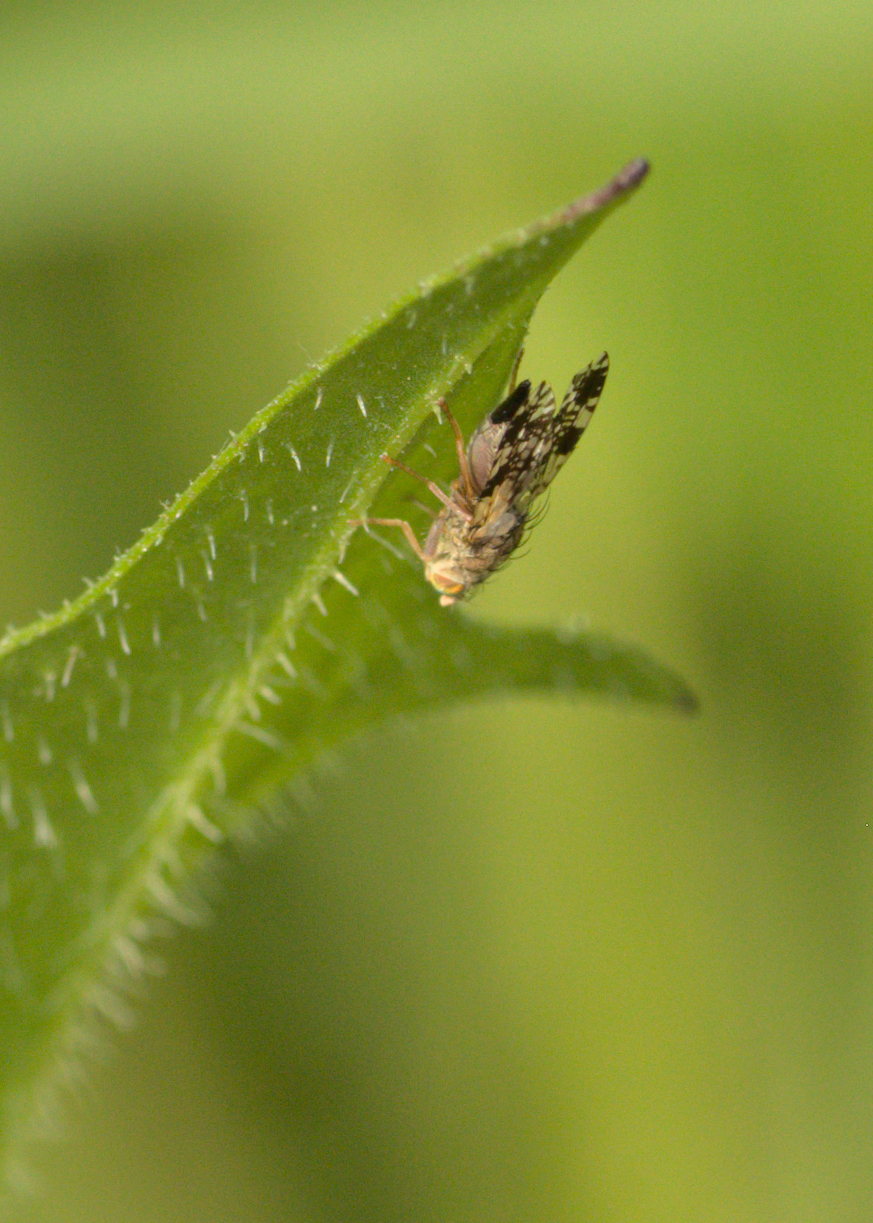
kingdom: Animalia
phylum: Arthropoda
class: Insecta
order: Diptera
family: Tephritidae
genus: Tephritis
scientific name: Tephritis
